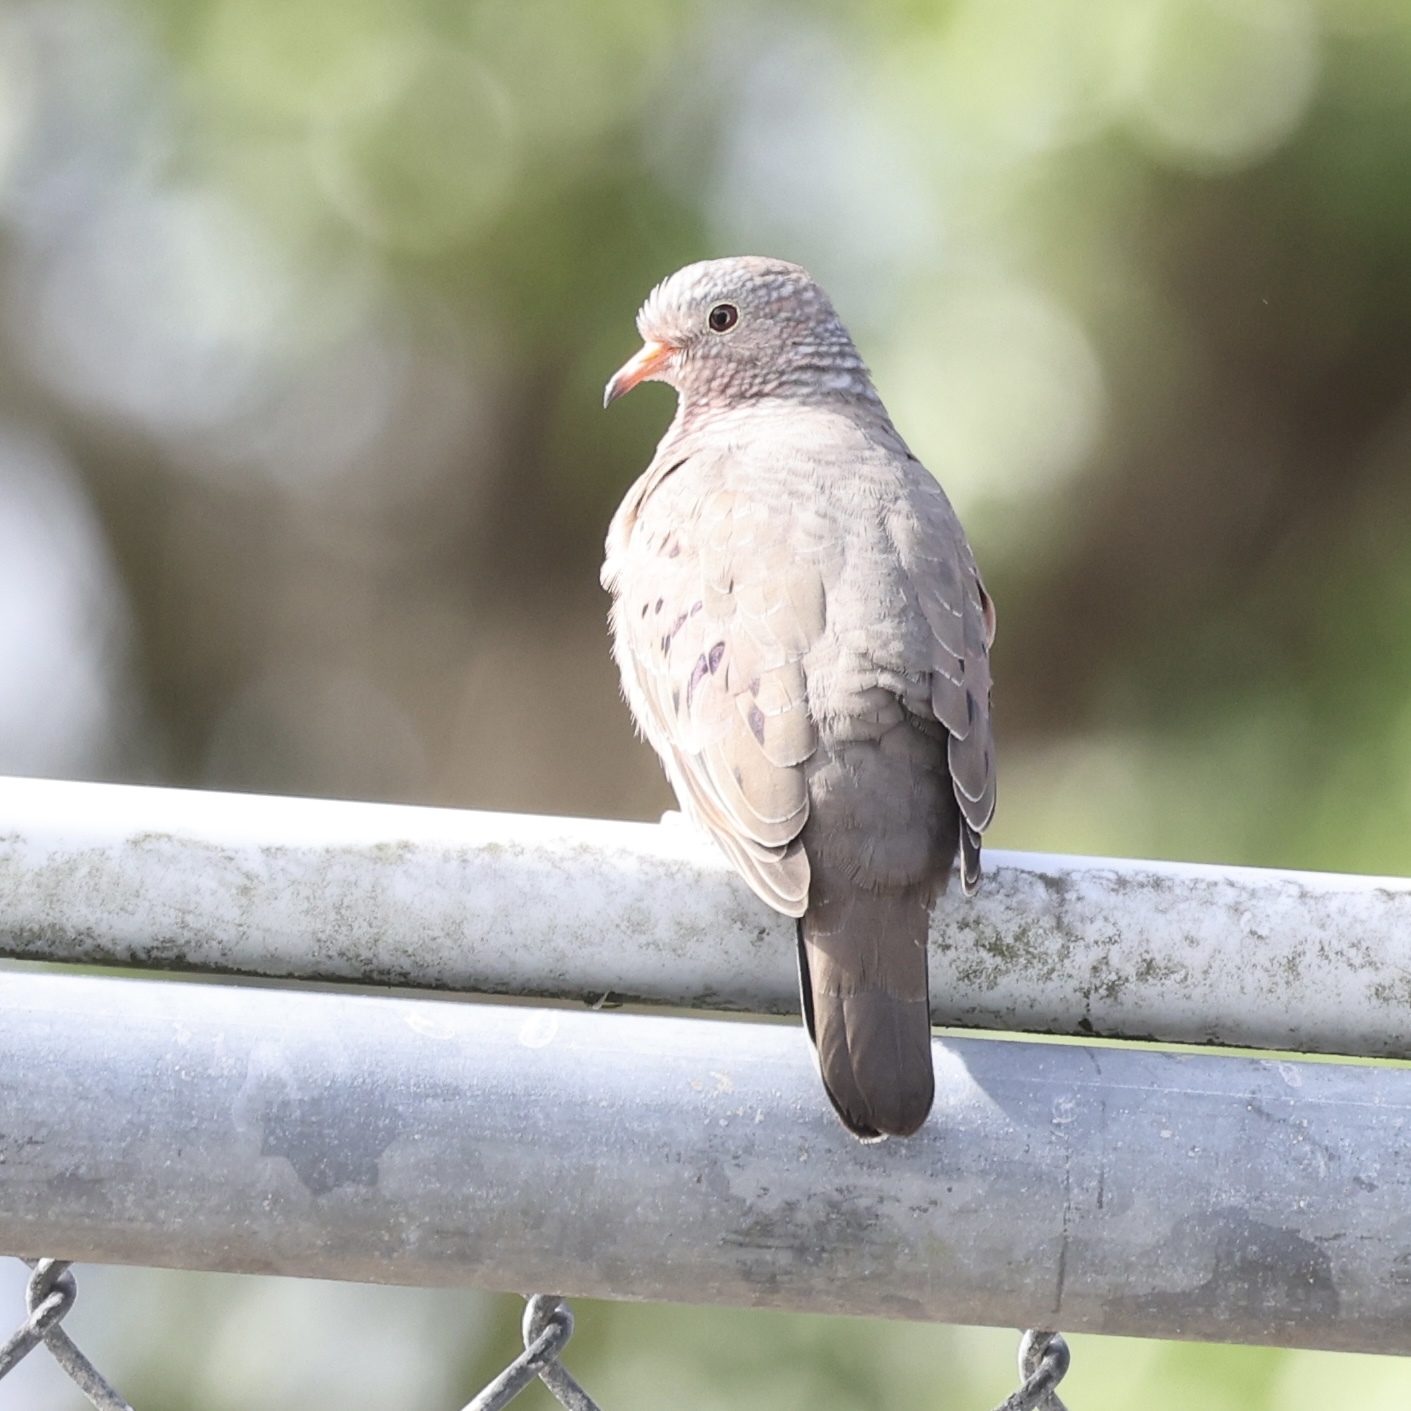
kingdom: Animalia
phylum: Chordata
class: Aves
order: Columbiformes
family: Columbidae
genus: Columbina
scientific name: Columbina passerina
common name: Common ground-dove
